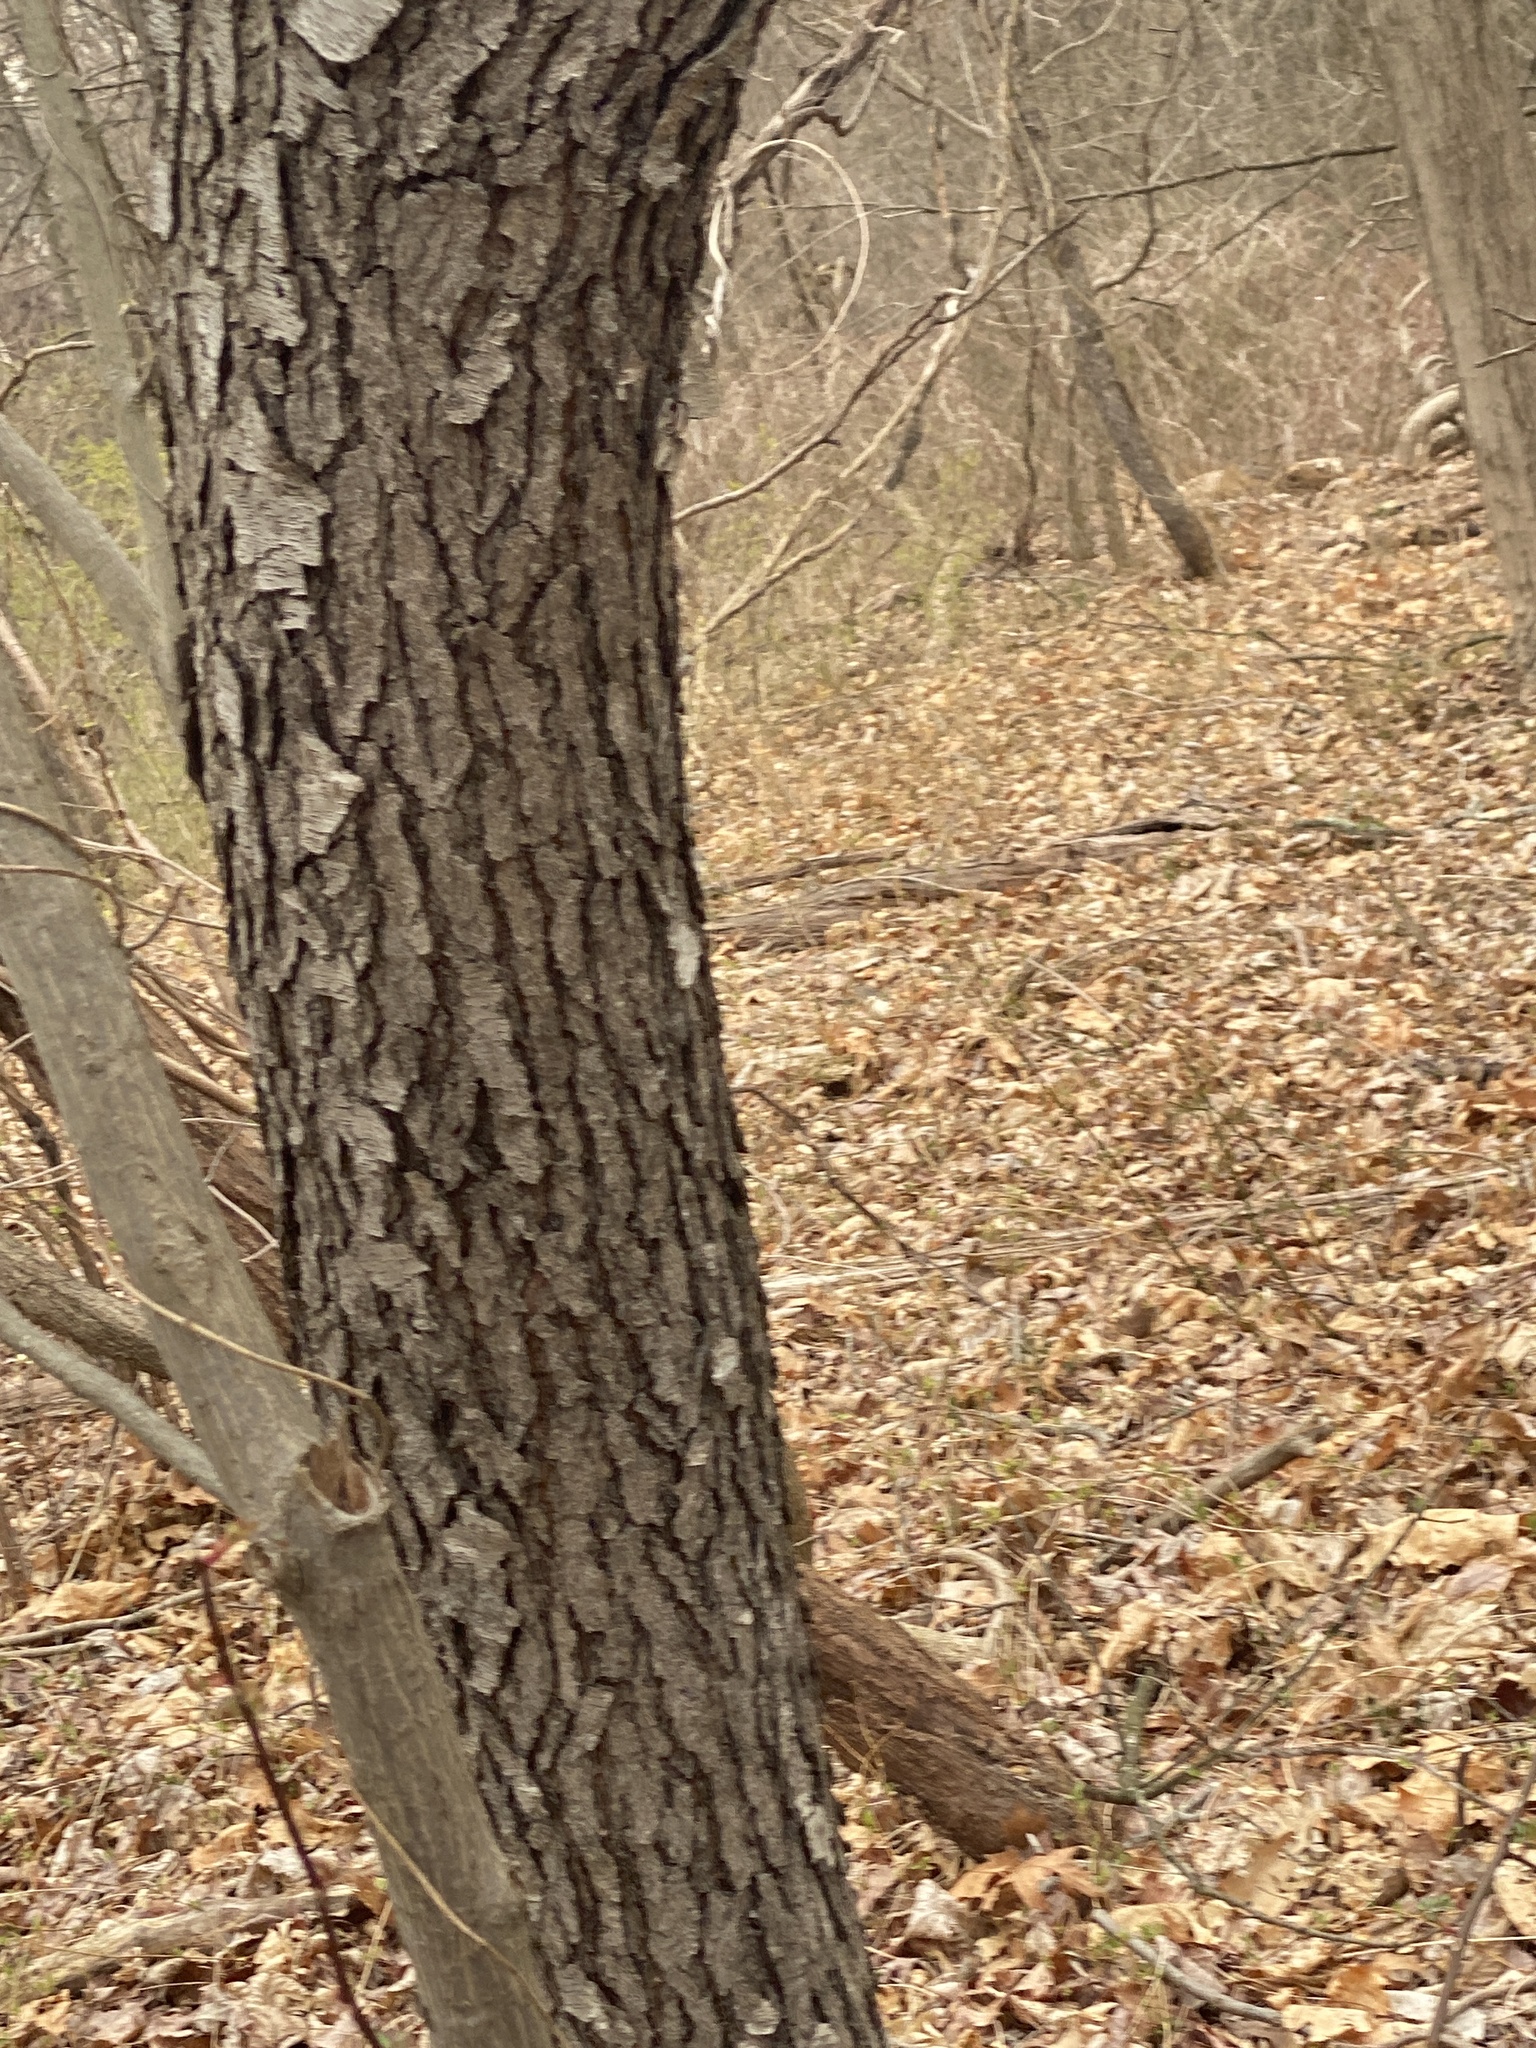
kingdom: Plantae
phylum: Tracheophyta
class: Magnoliopsida
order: Rosales
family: Rosaceae
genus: Prunus
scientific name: Prunus serotina
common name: Black cherry
